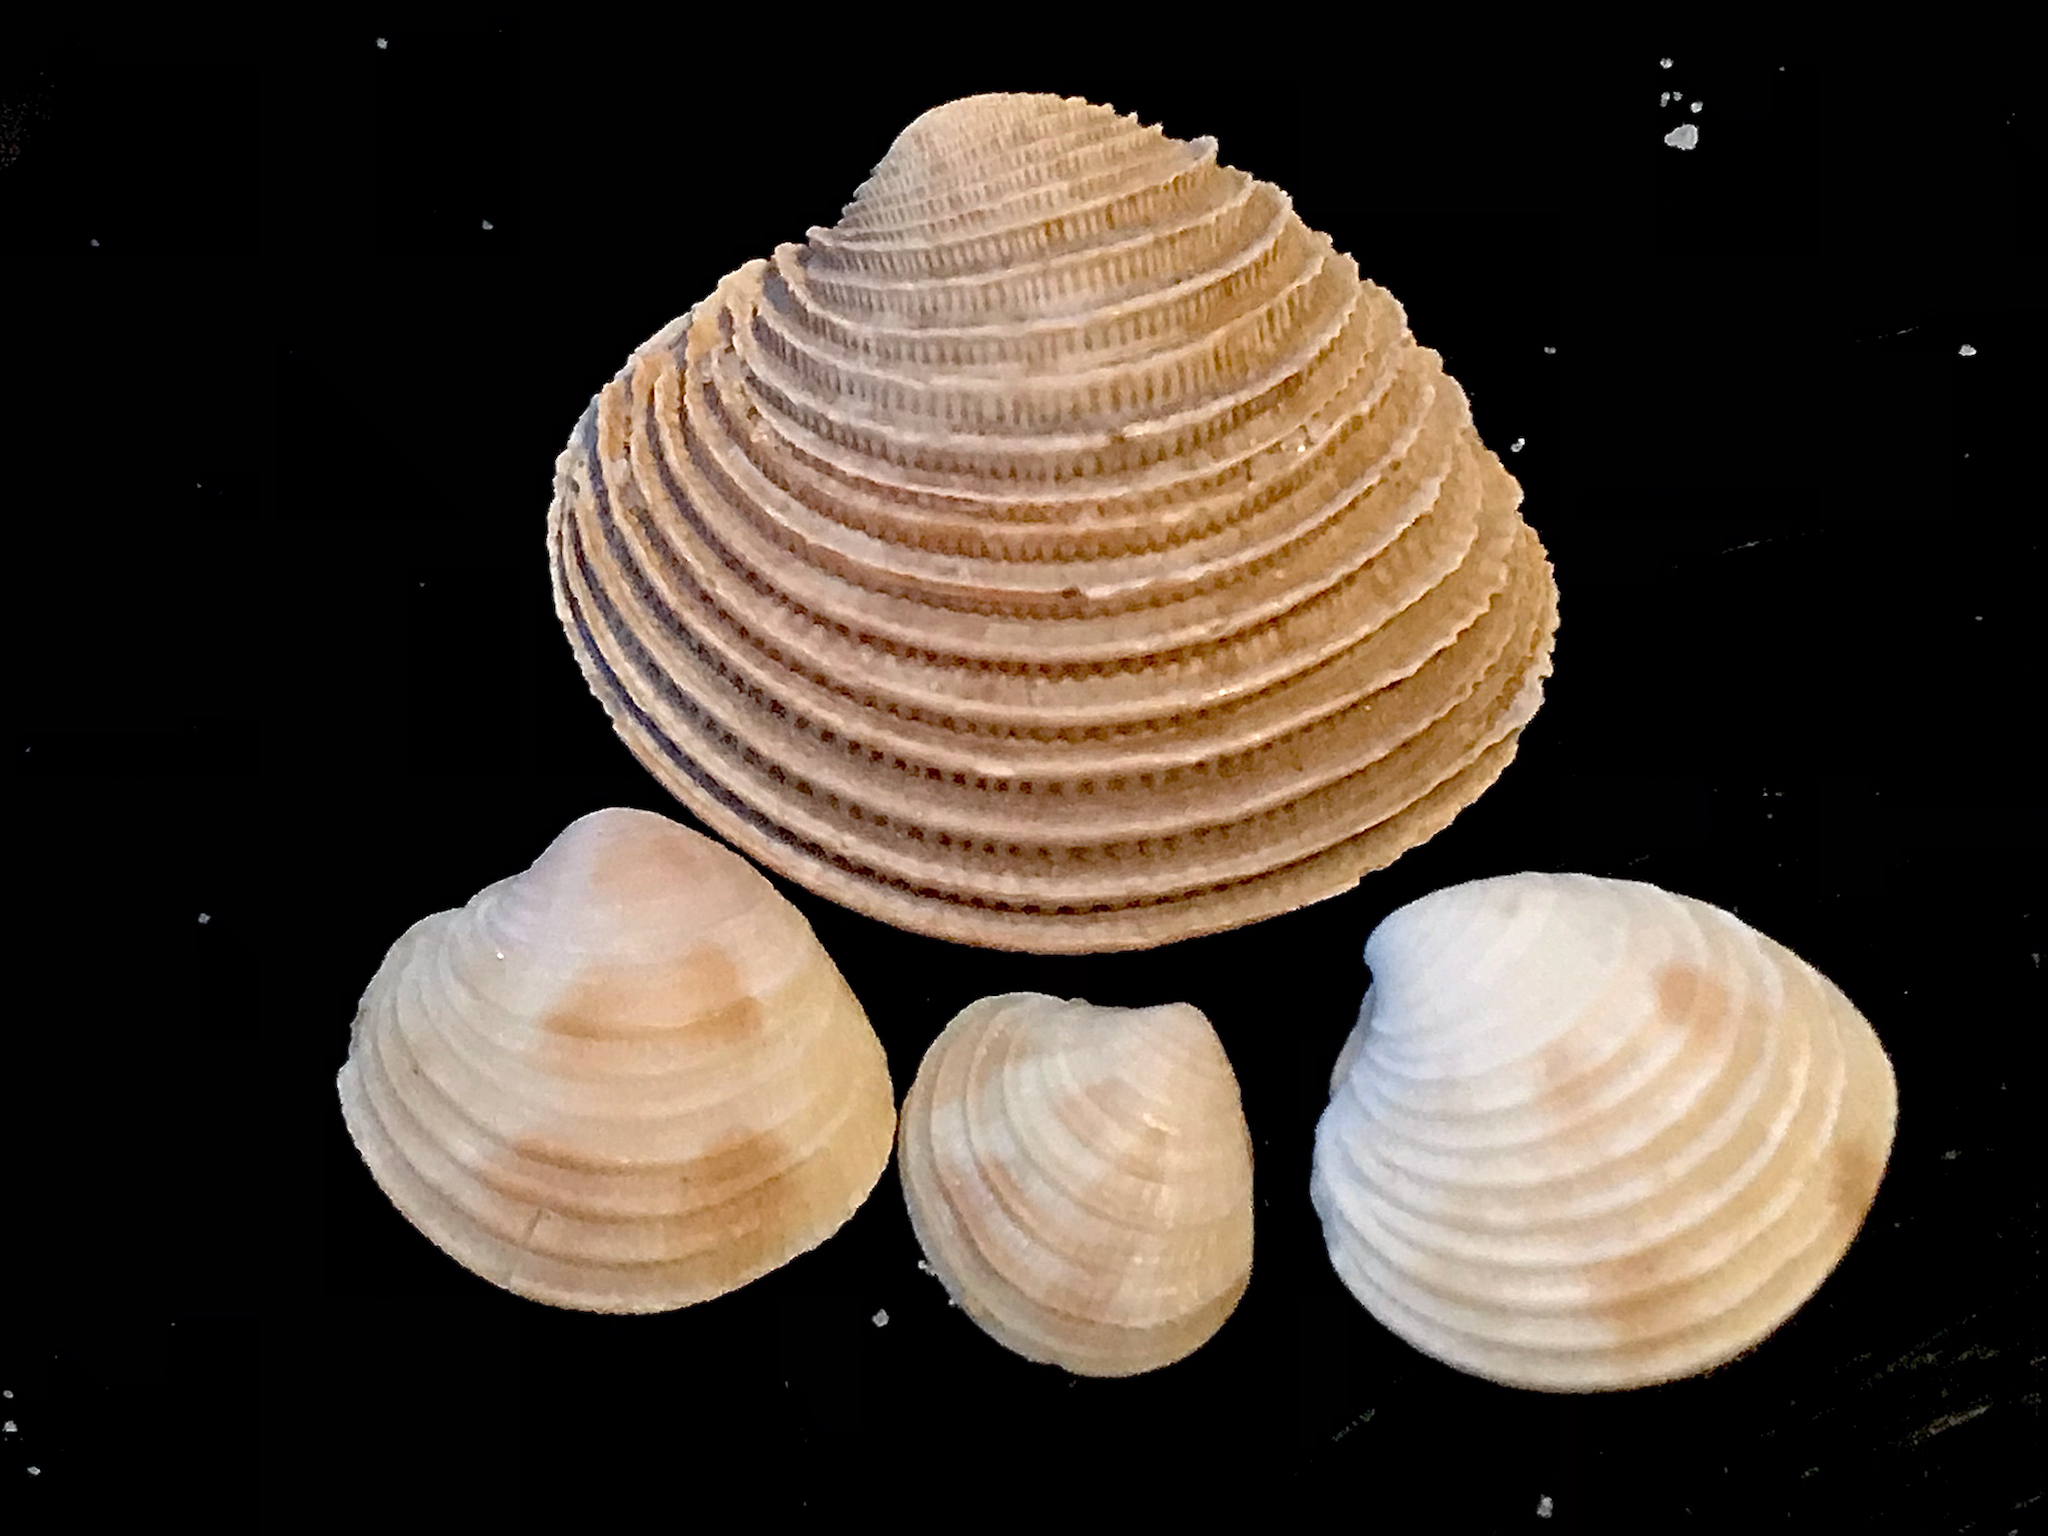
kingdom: Animalia
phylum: Mollusca
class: Bivalvia
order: Venerida
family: Veneridae
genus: Chionopsis
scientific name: Chionopsis intapurpurea
